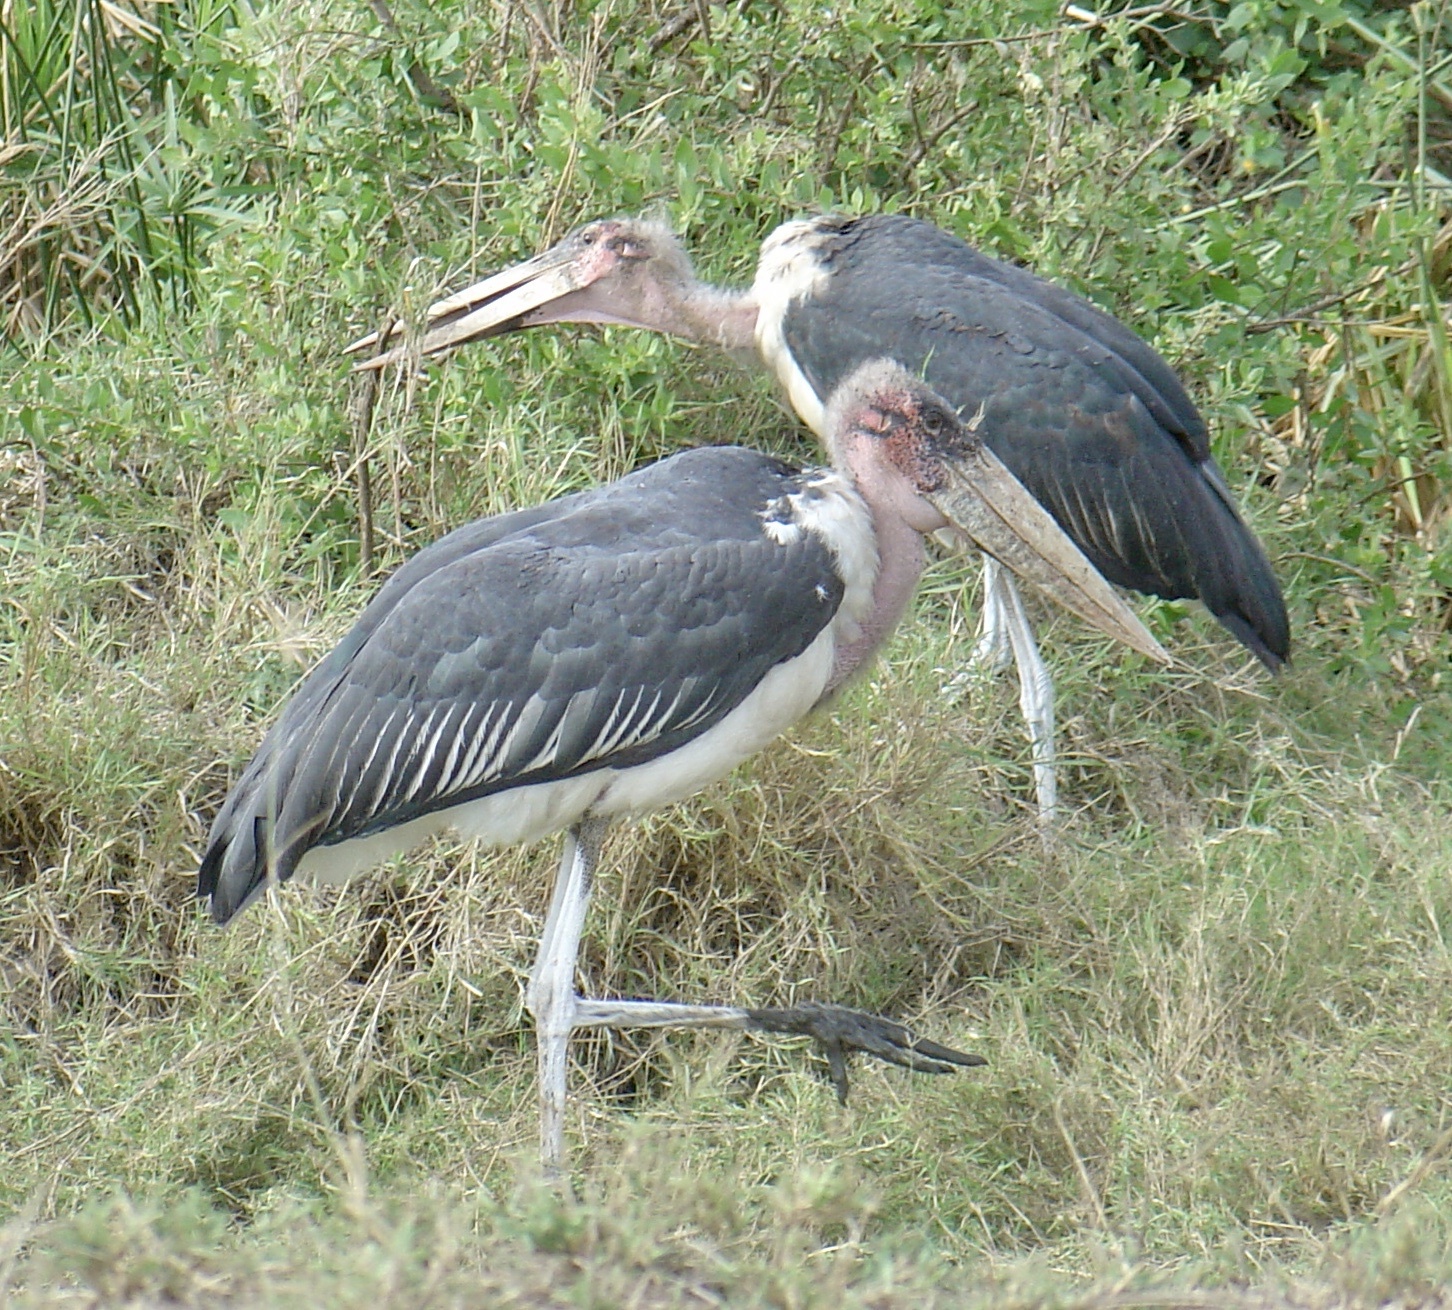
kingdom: Animalia
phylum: Chordata
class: Aves
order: Ciconiiformes
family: Ciconiidae
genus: Leptoptilos
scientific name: Leptoptilos crumenifer
